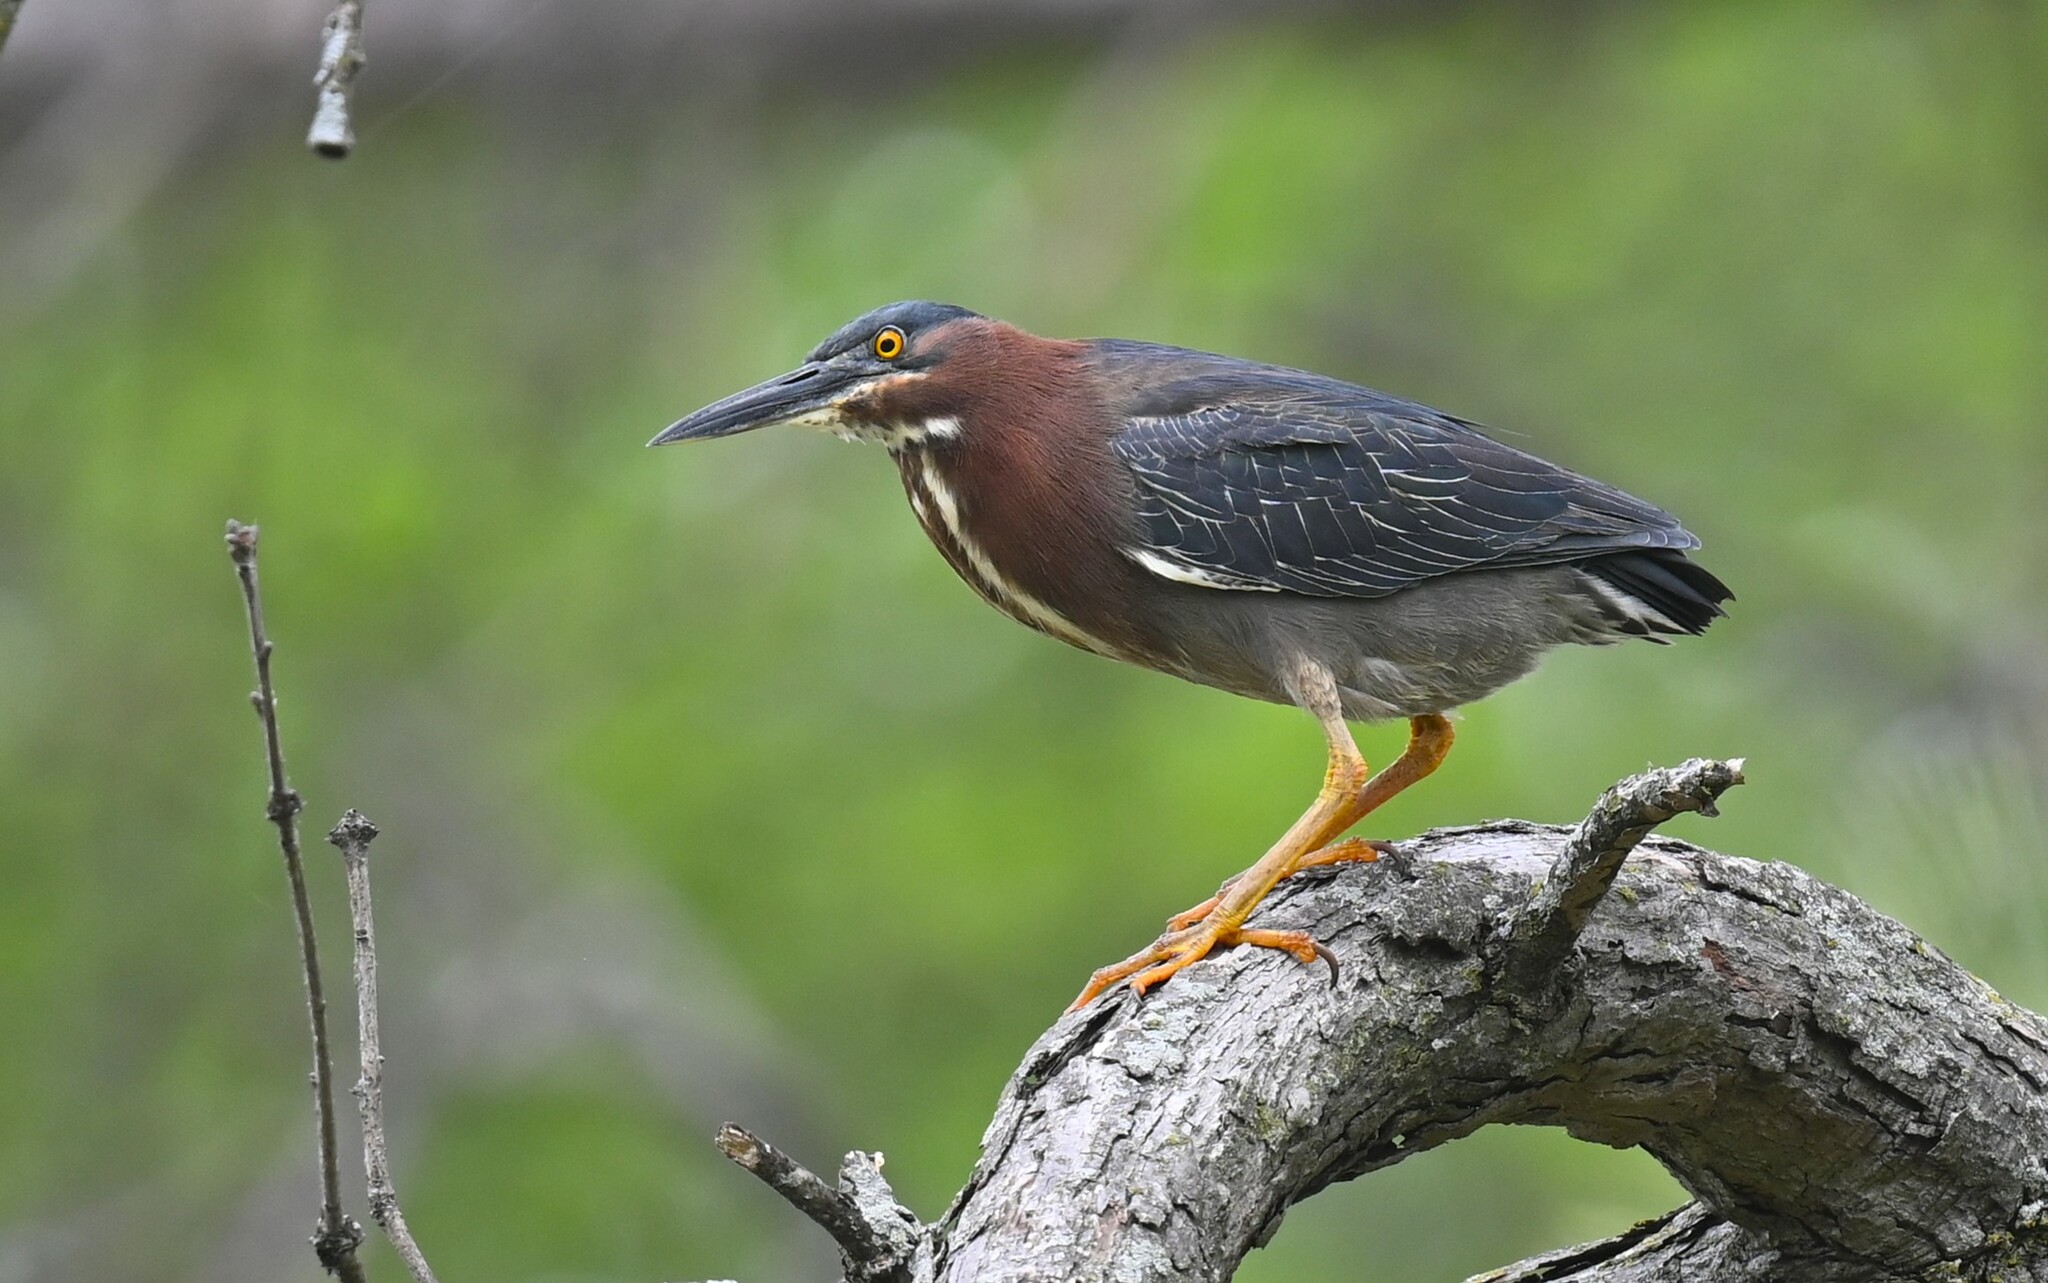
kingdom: Animalia
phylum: Chordata
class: Aves
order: Pelecaniformes
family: Ardeidae
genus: Butorides
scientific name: Butorides virescens
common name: Green heron
